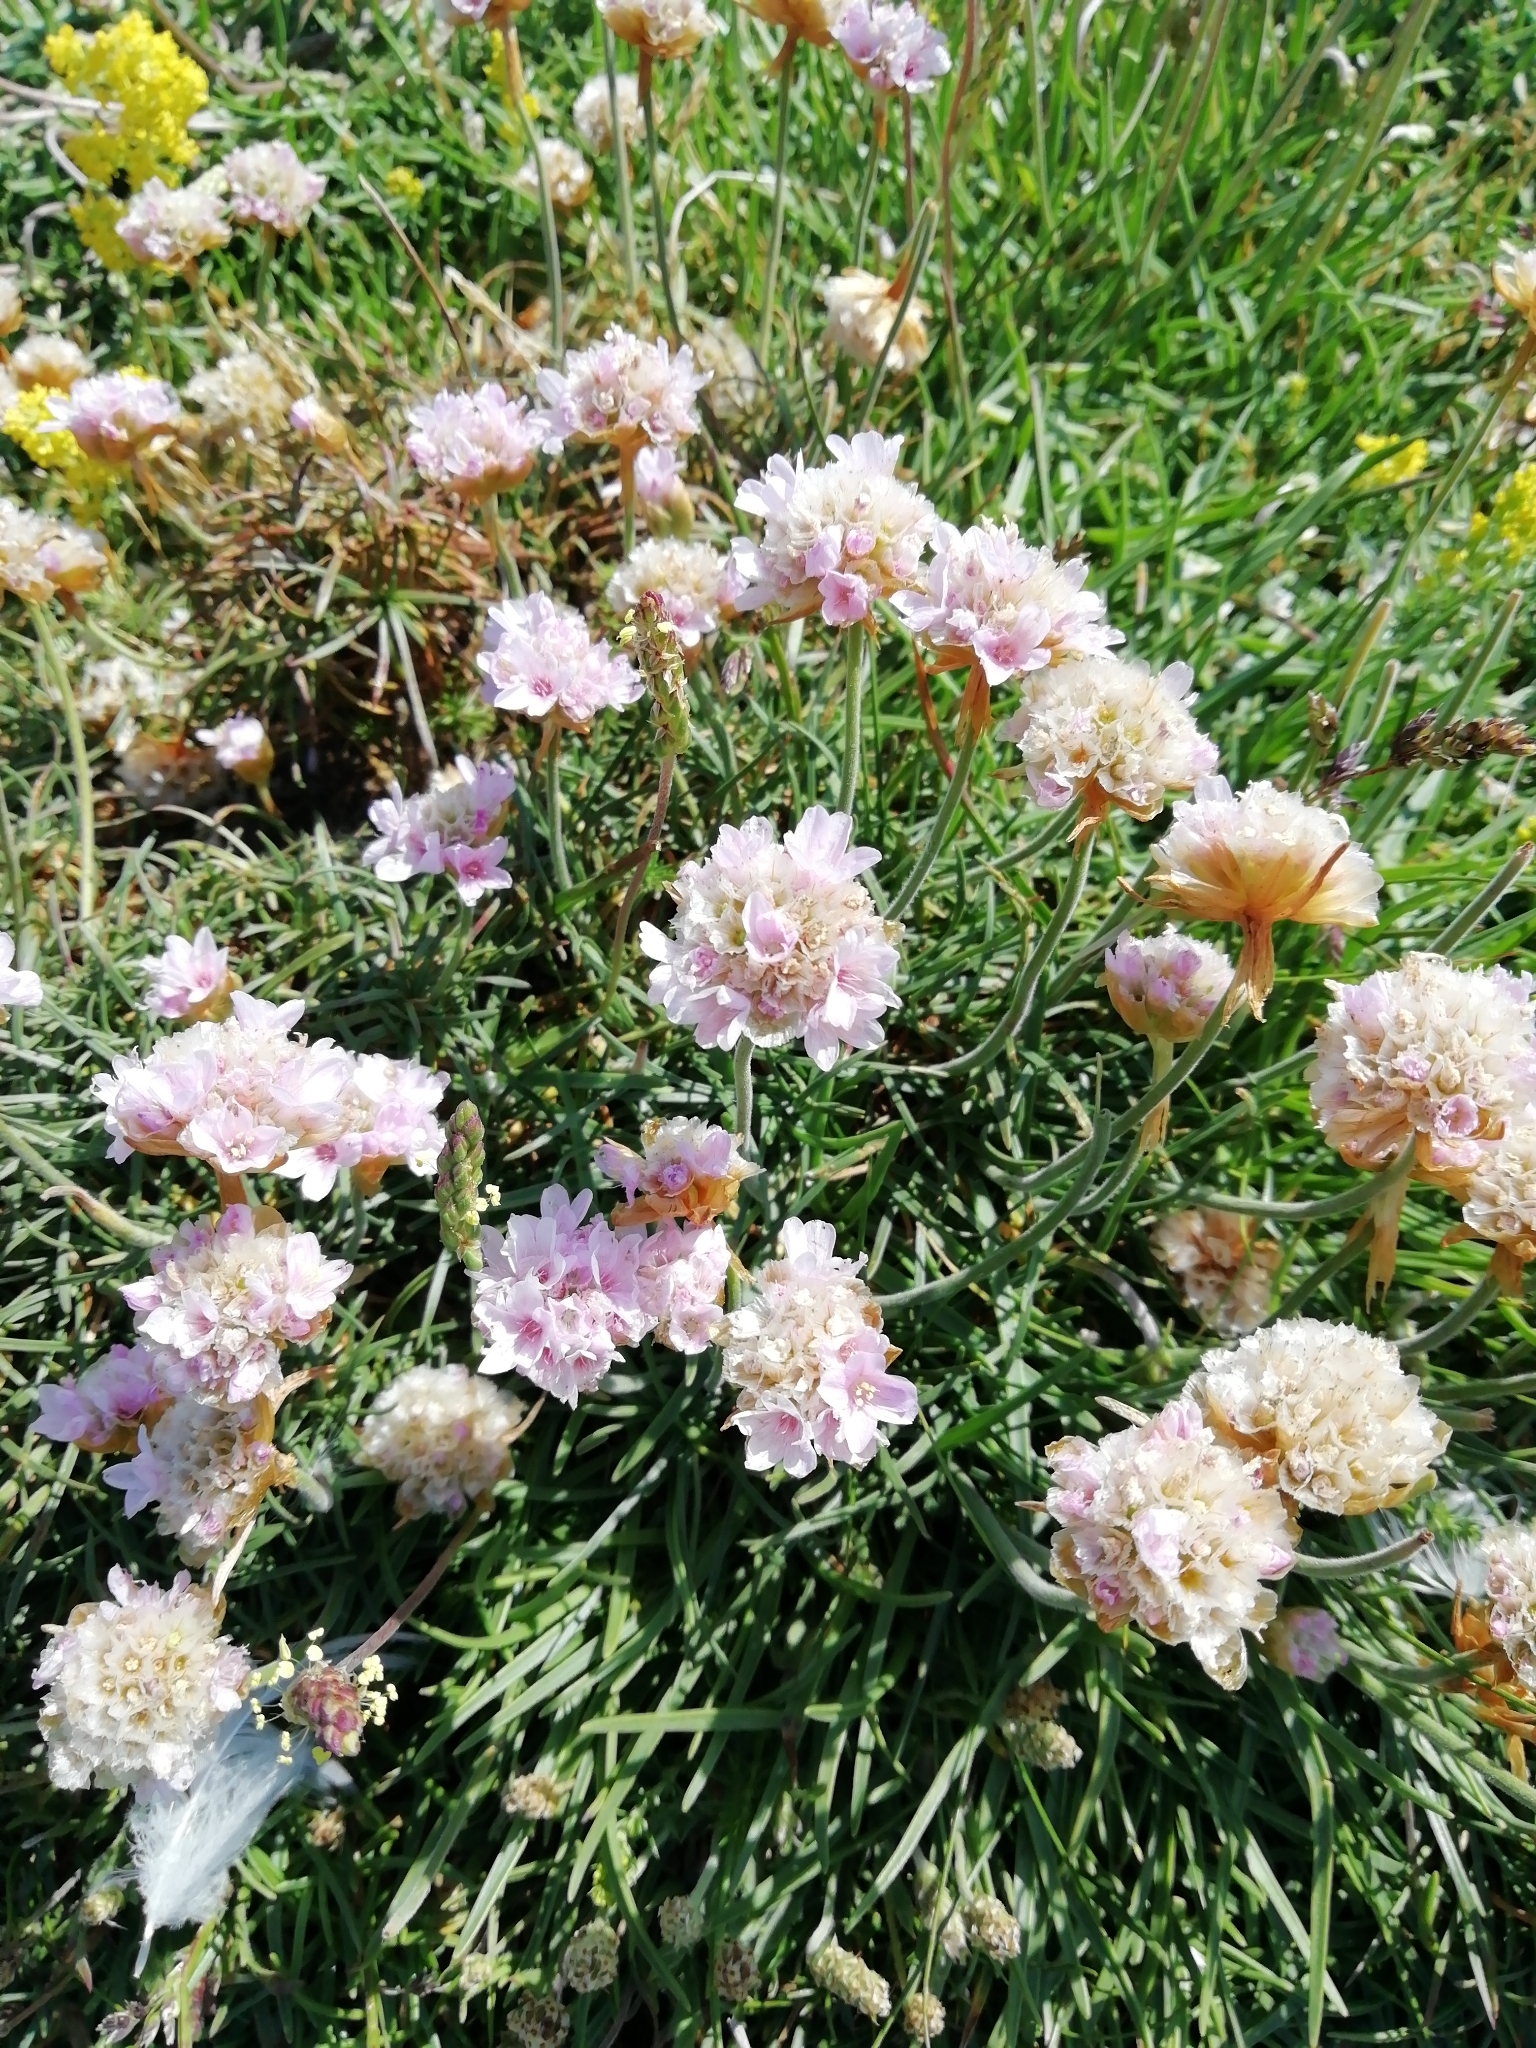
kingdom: Plantae
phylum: Tracheophyta
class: Magnoliopsida
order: Caryophyllales
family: Plumbaginaceae
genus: Armeria
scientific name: Armeria maritima
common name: Thrift
